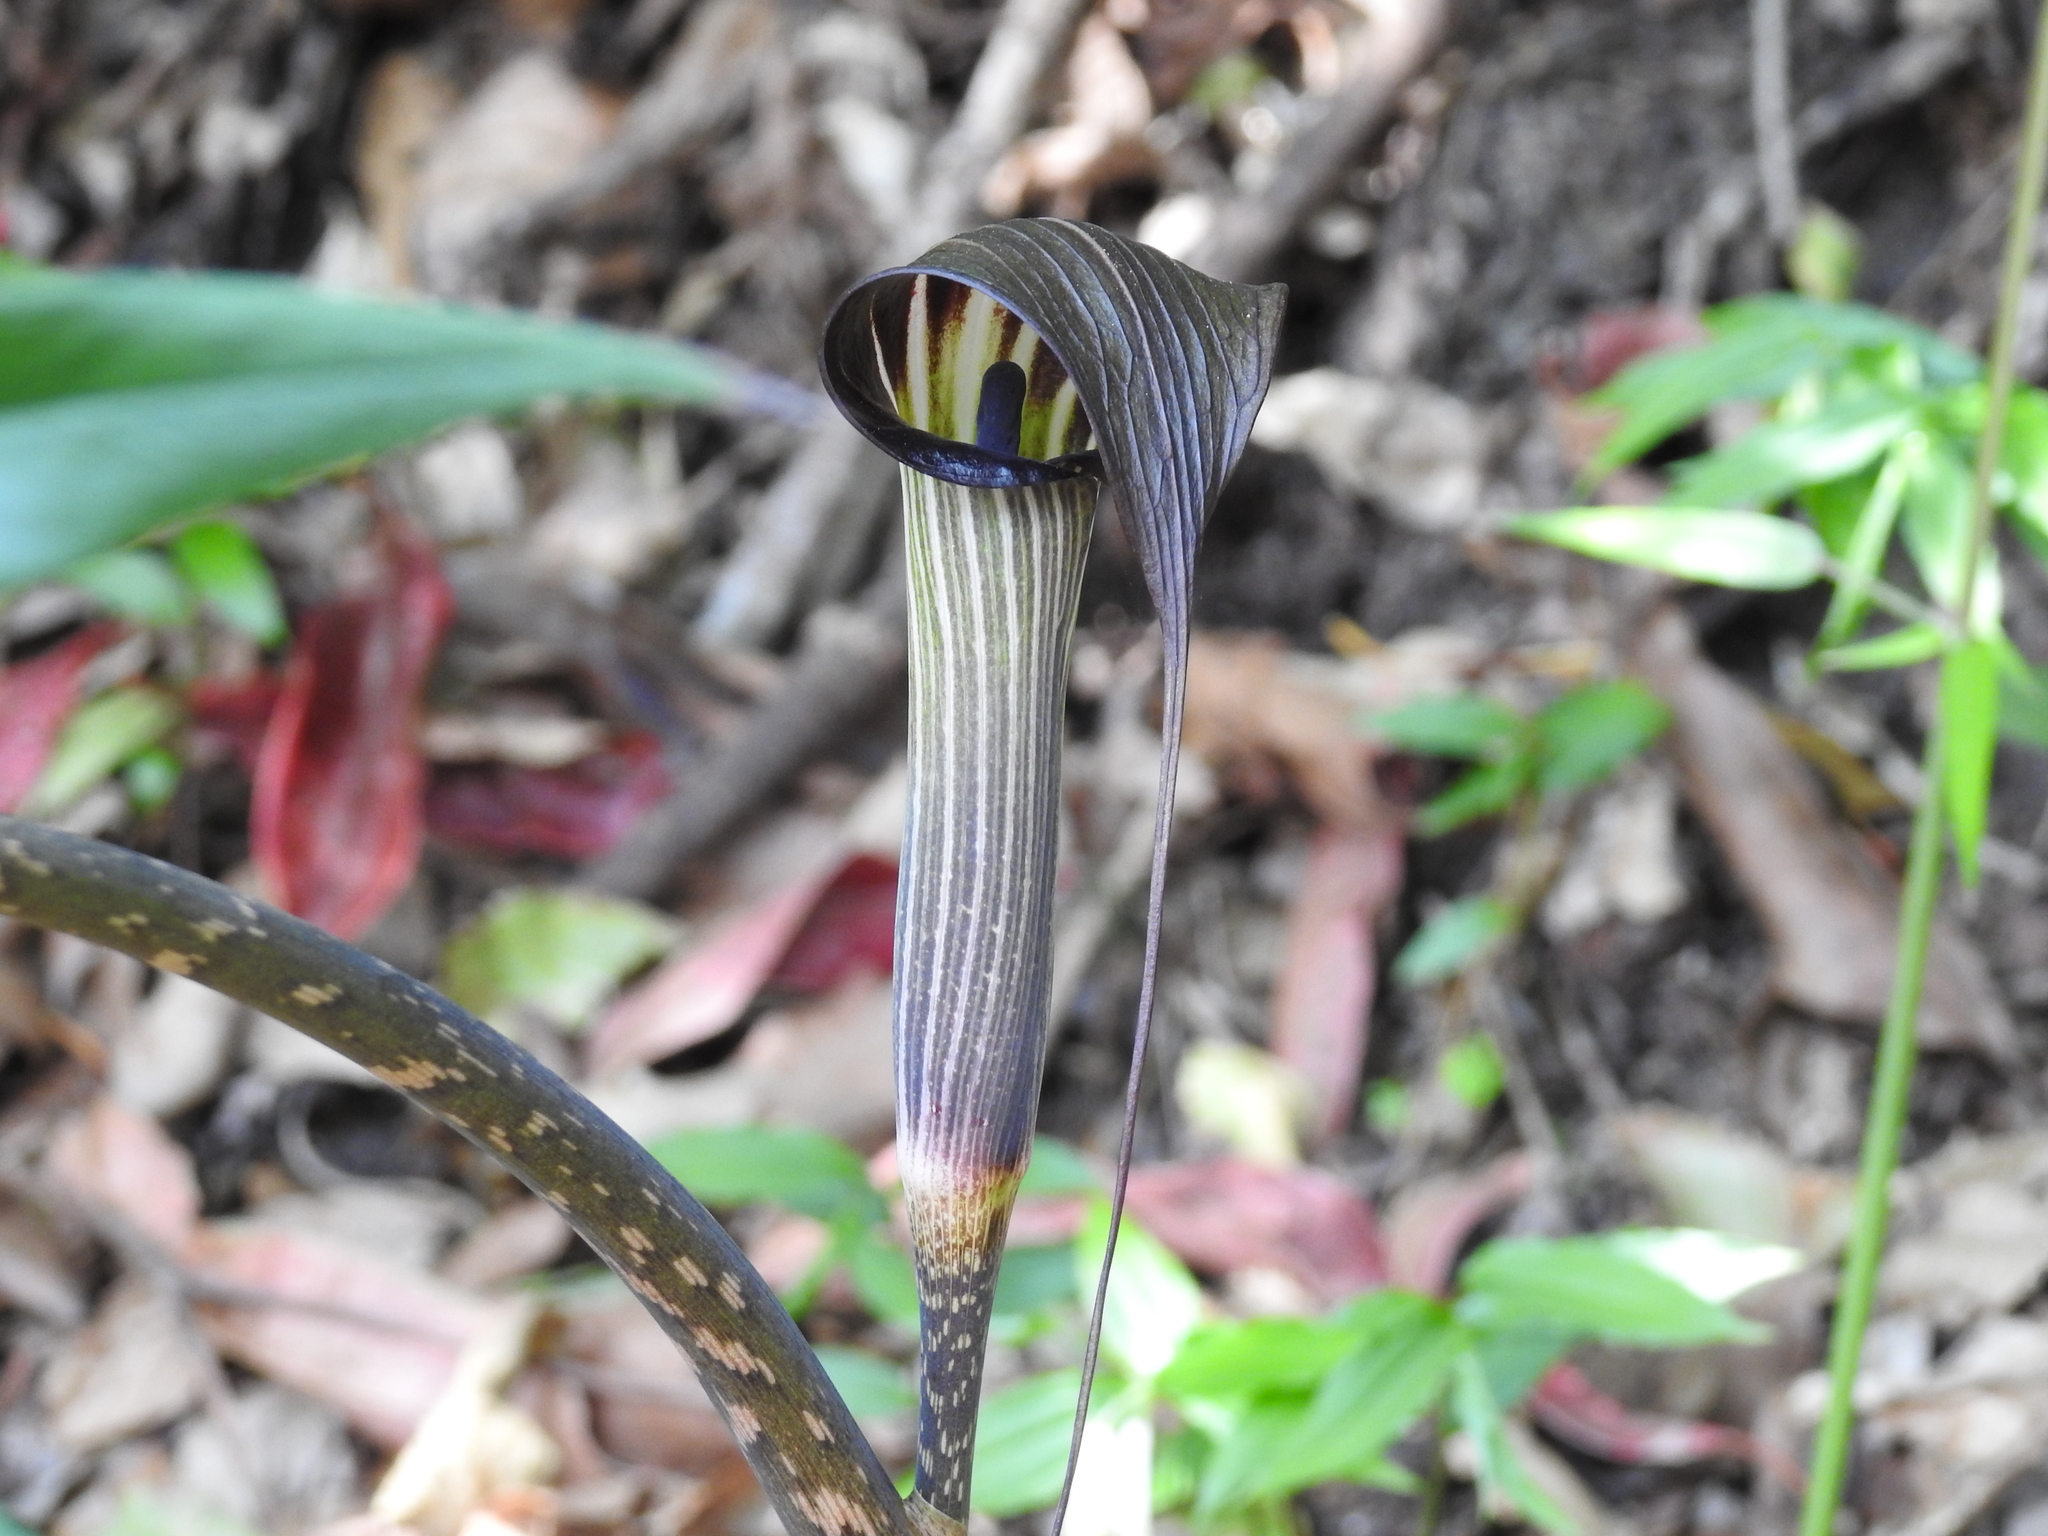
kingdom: Plantae
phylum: Tracheophyta
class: Liliopsida
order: Alismatales
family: Araceae
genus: Arisaema
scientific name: Arisaema consanguineum
